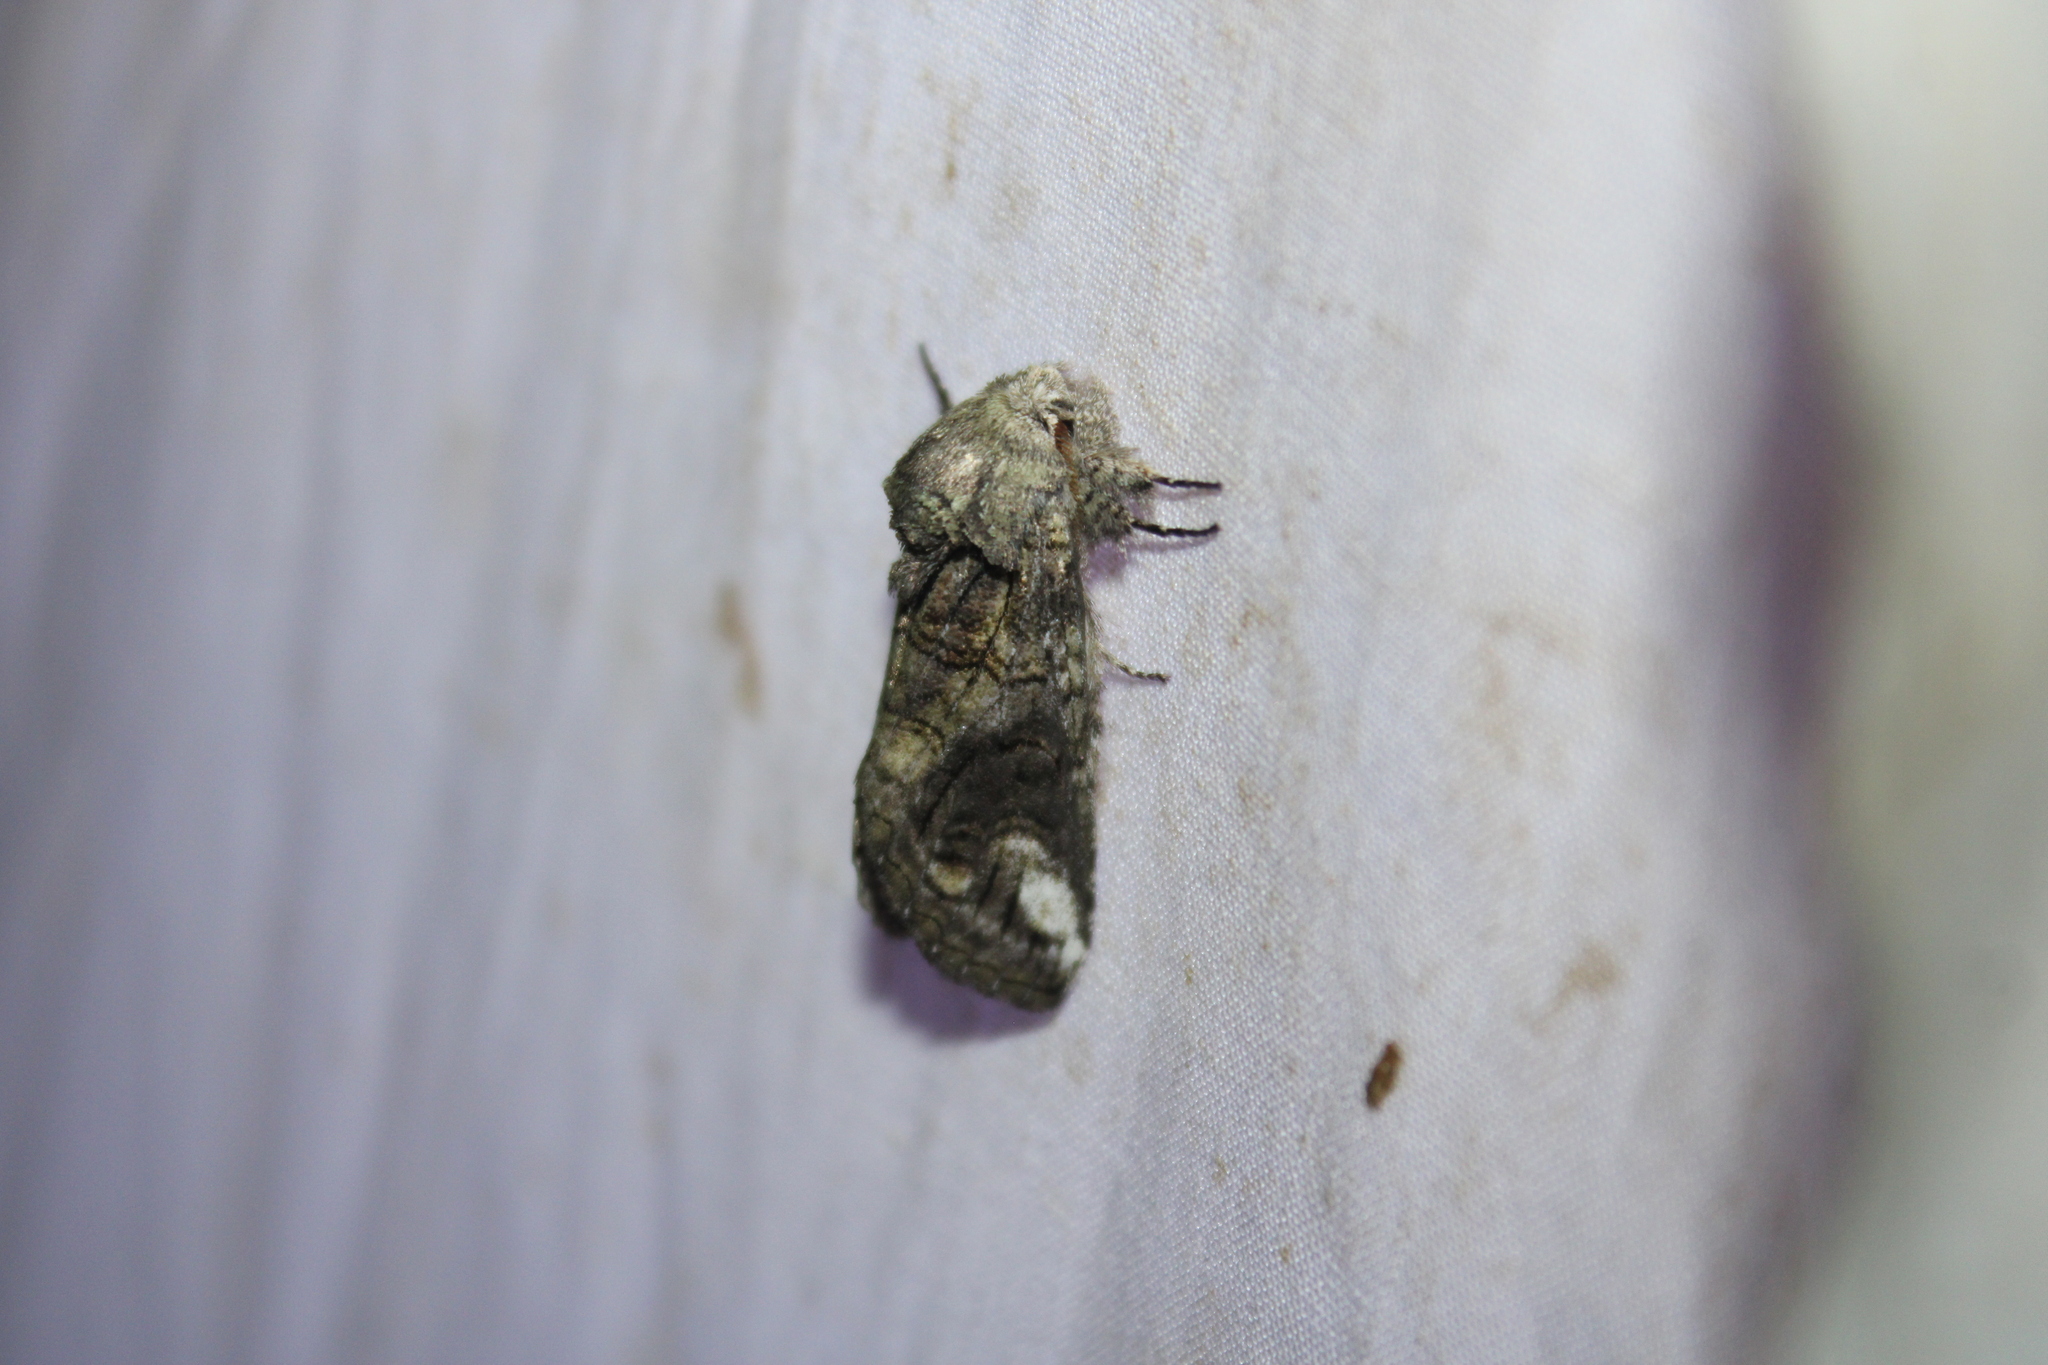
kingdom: Animalia
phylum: Arthropoda
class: Insecta
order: Lepidoptera
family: Notodontidae
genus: Heterocampa
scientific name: Heterocampa obliqua
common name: Oblique heterocampa
